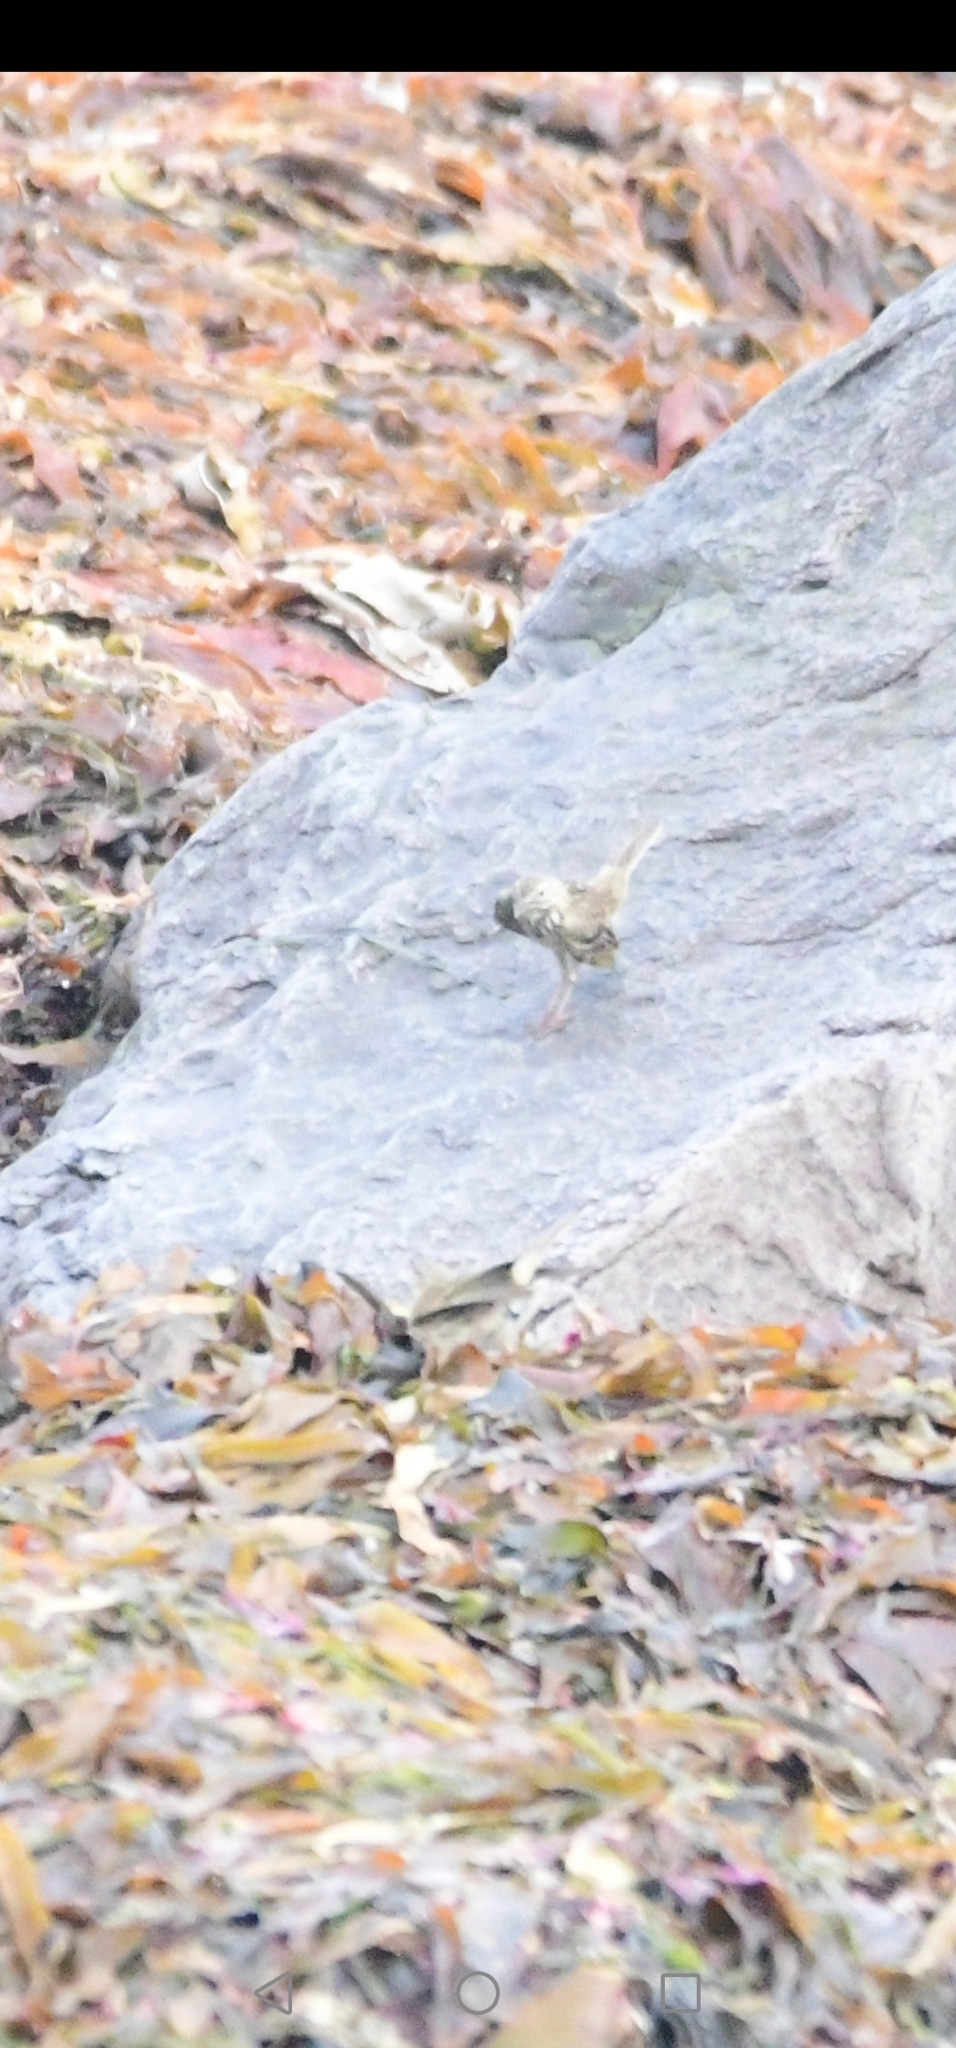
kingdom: Animalia
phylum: Chordata
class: Aves
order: Passeriformes
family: Motacillidae
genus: Anthus
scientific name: Anthus pratensis
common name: Meadow pipit
